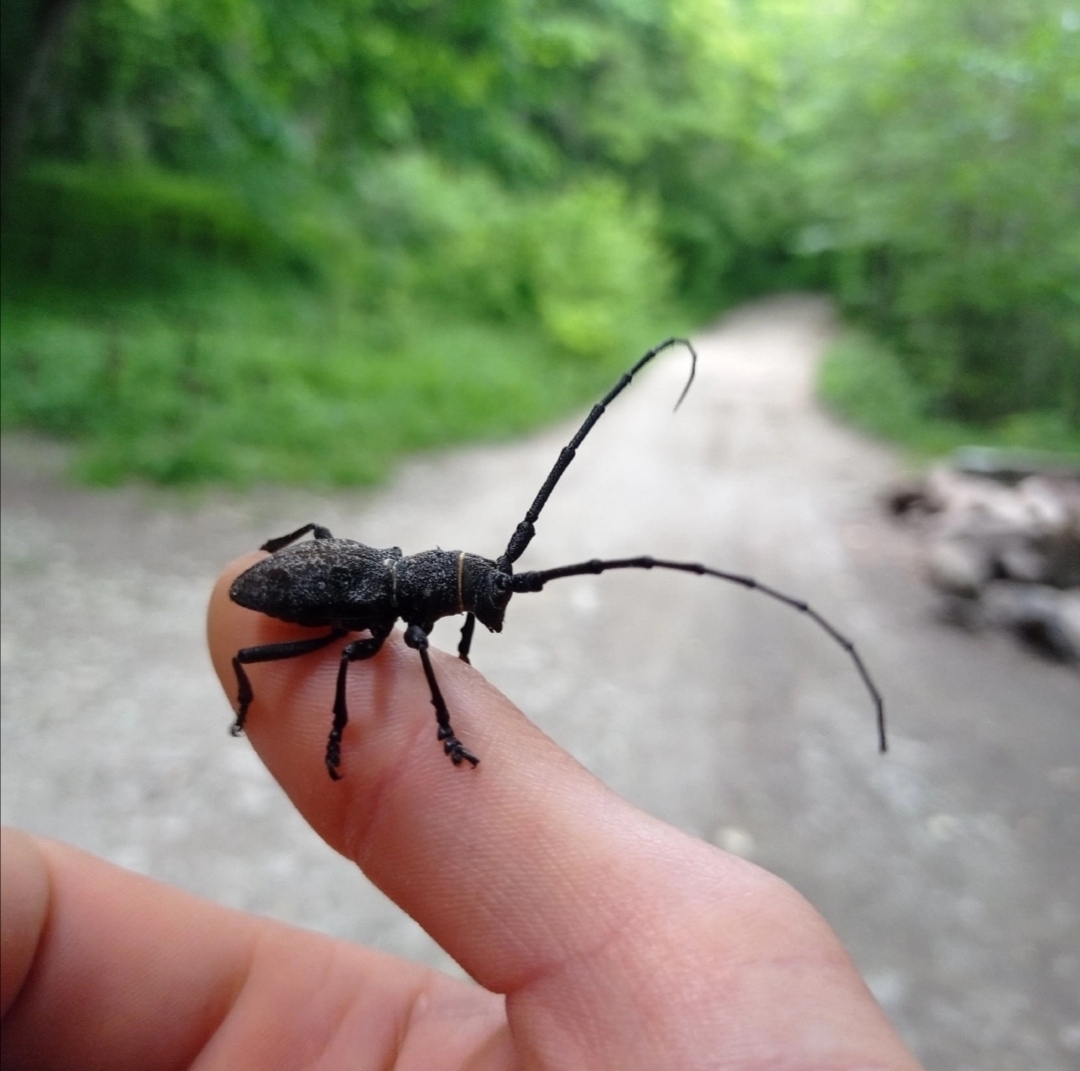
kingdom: Animalia
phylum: Arthropoda
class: Insecta
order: Coleoptera
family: Cerambycidae
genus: Morimus
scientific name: Morimus verecundus
